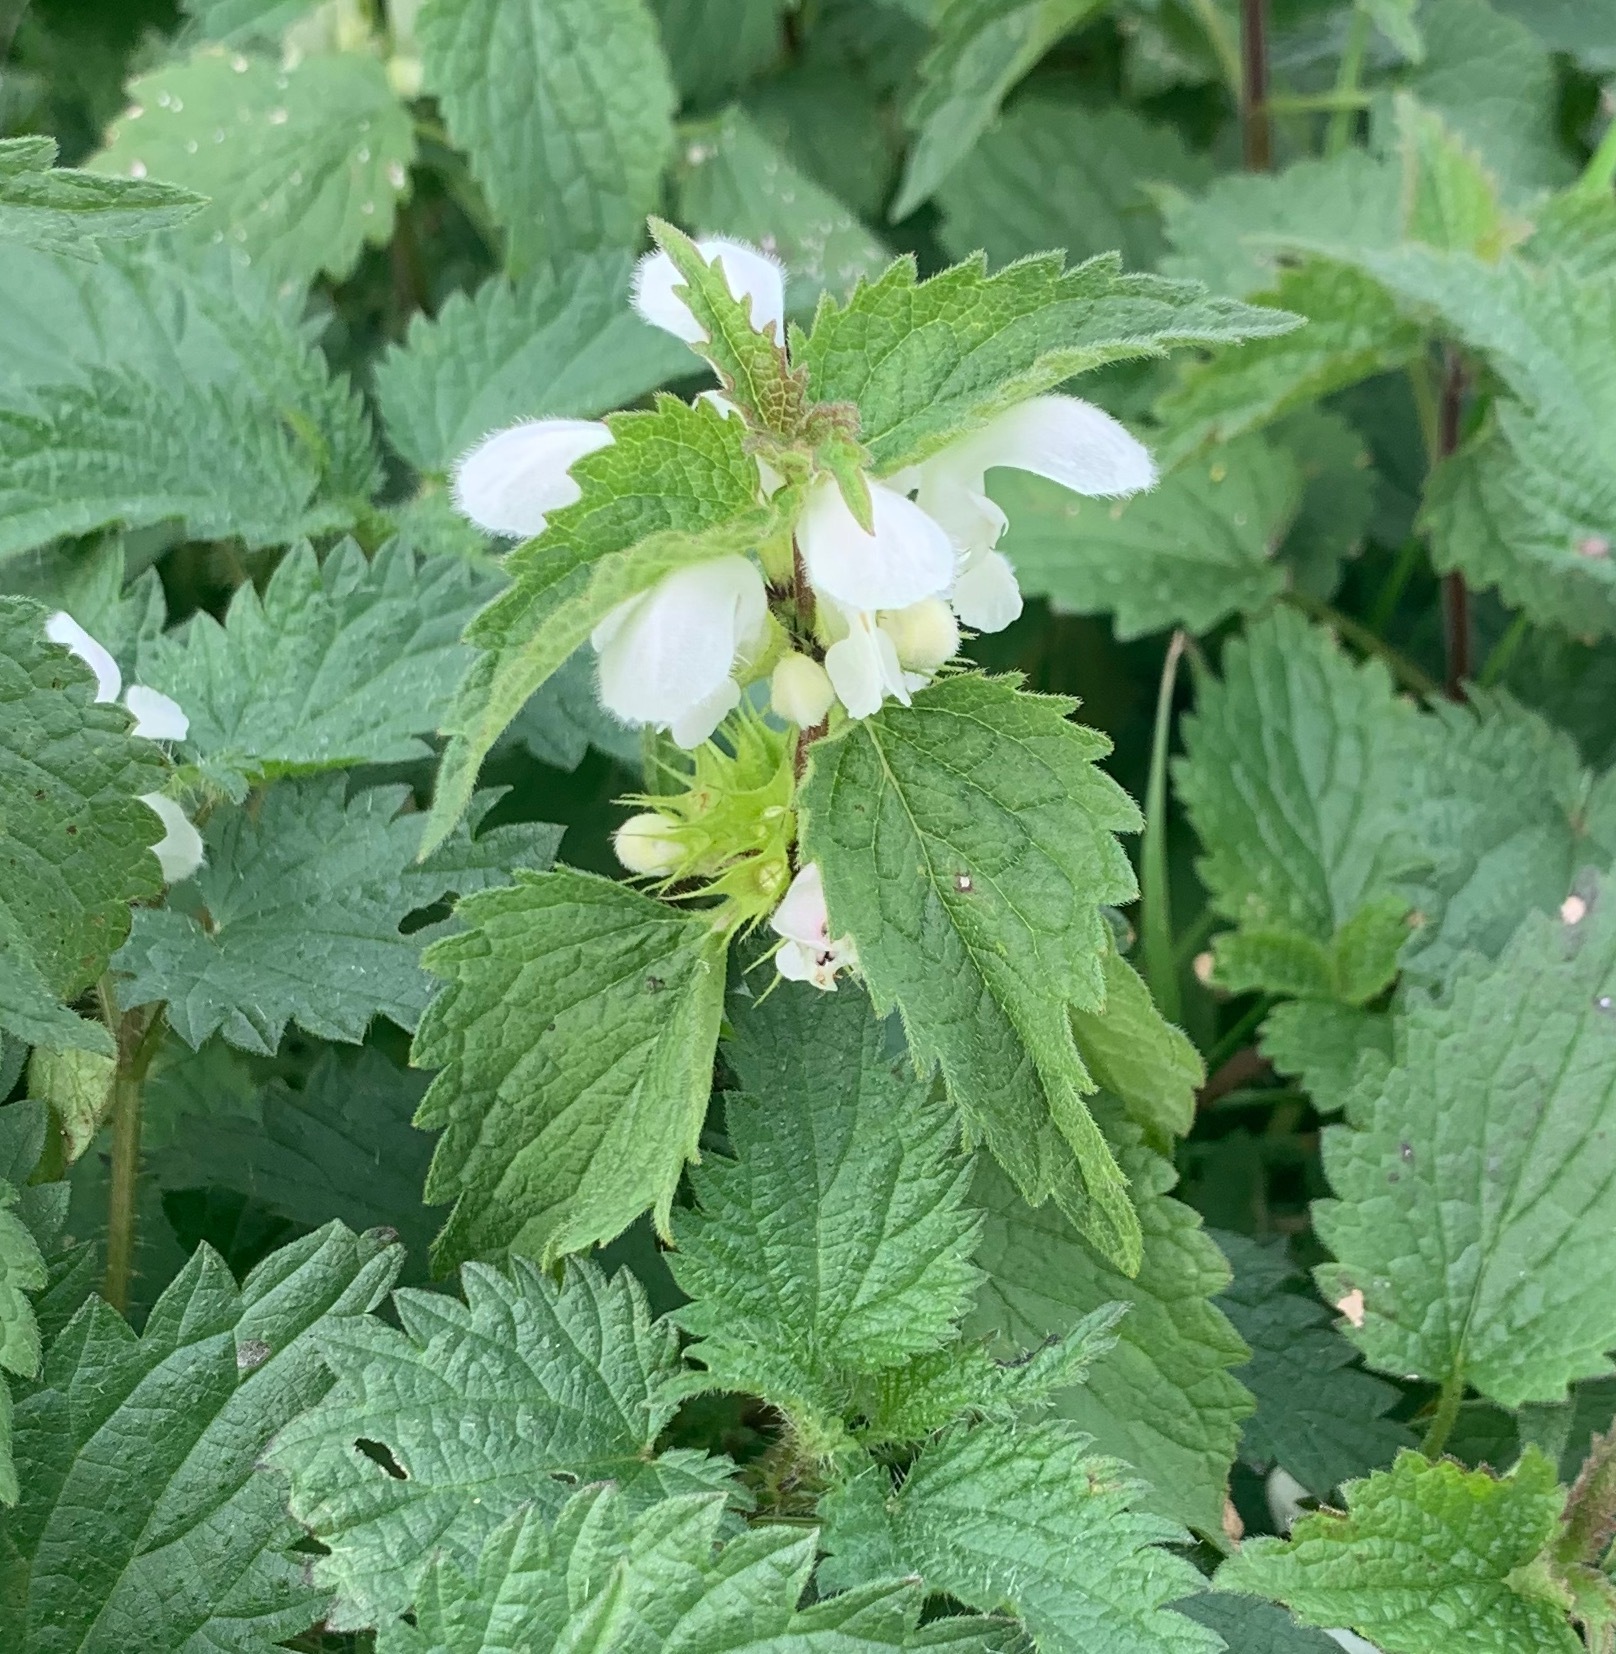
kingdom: Plantae
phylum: Tracheophyta
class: Magnoliopsida
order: Lamiales
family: Lamiaceae
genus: Lamium
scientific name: Lamium album
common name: White dead-nettle
